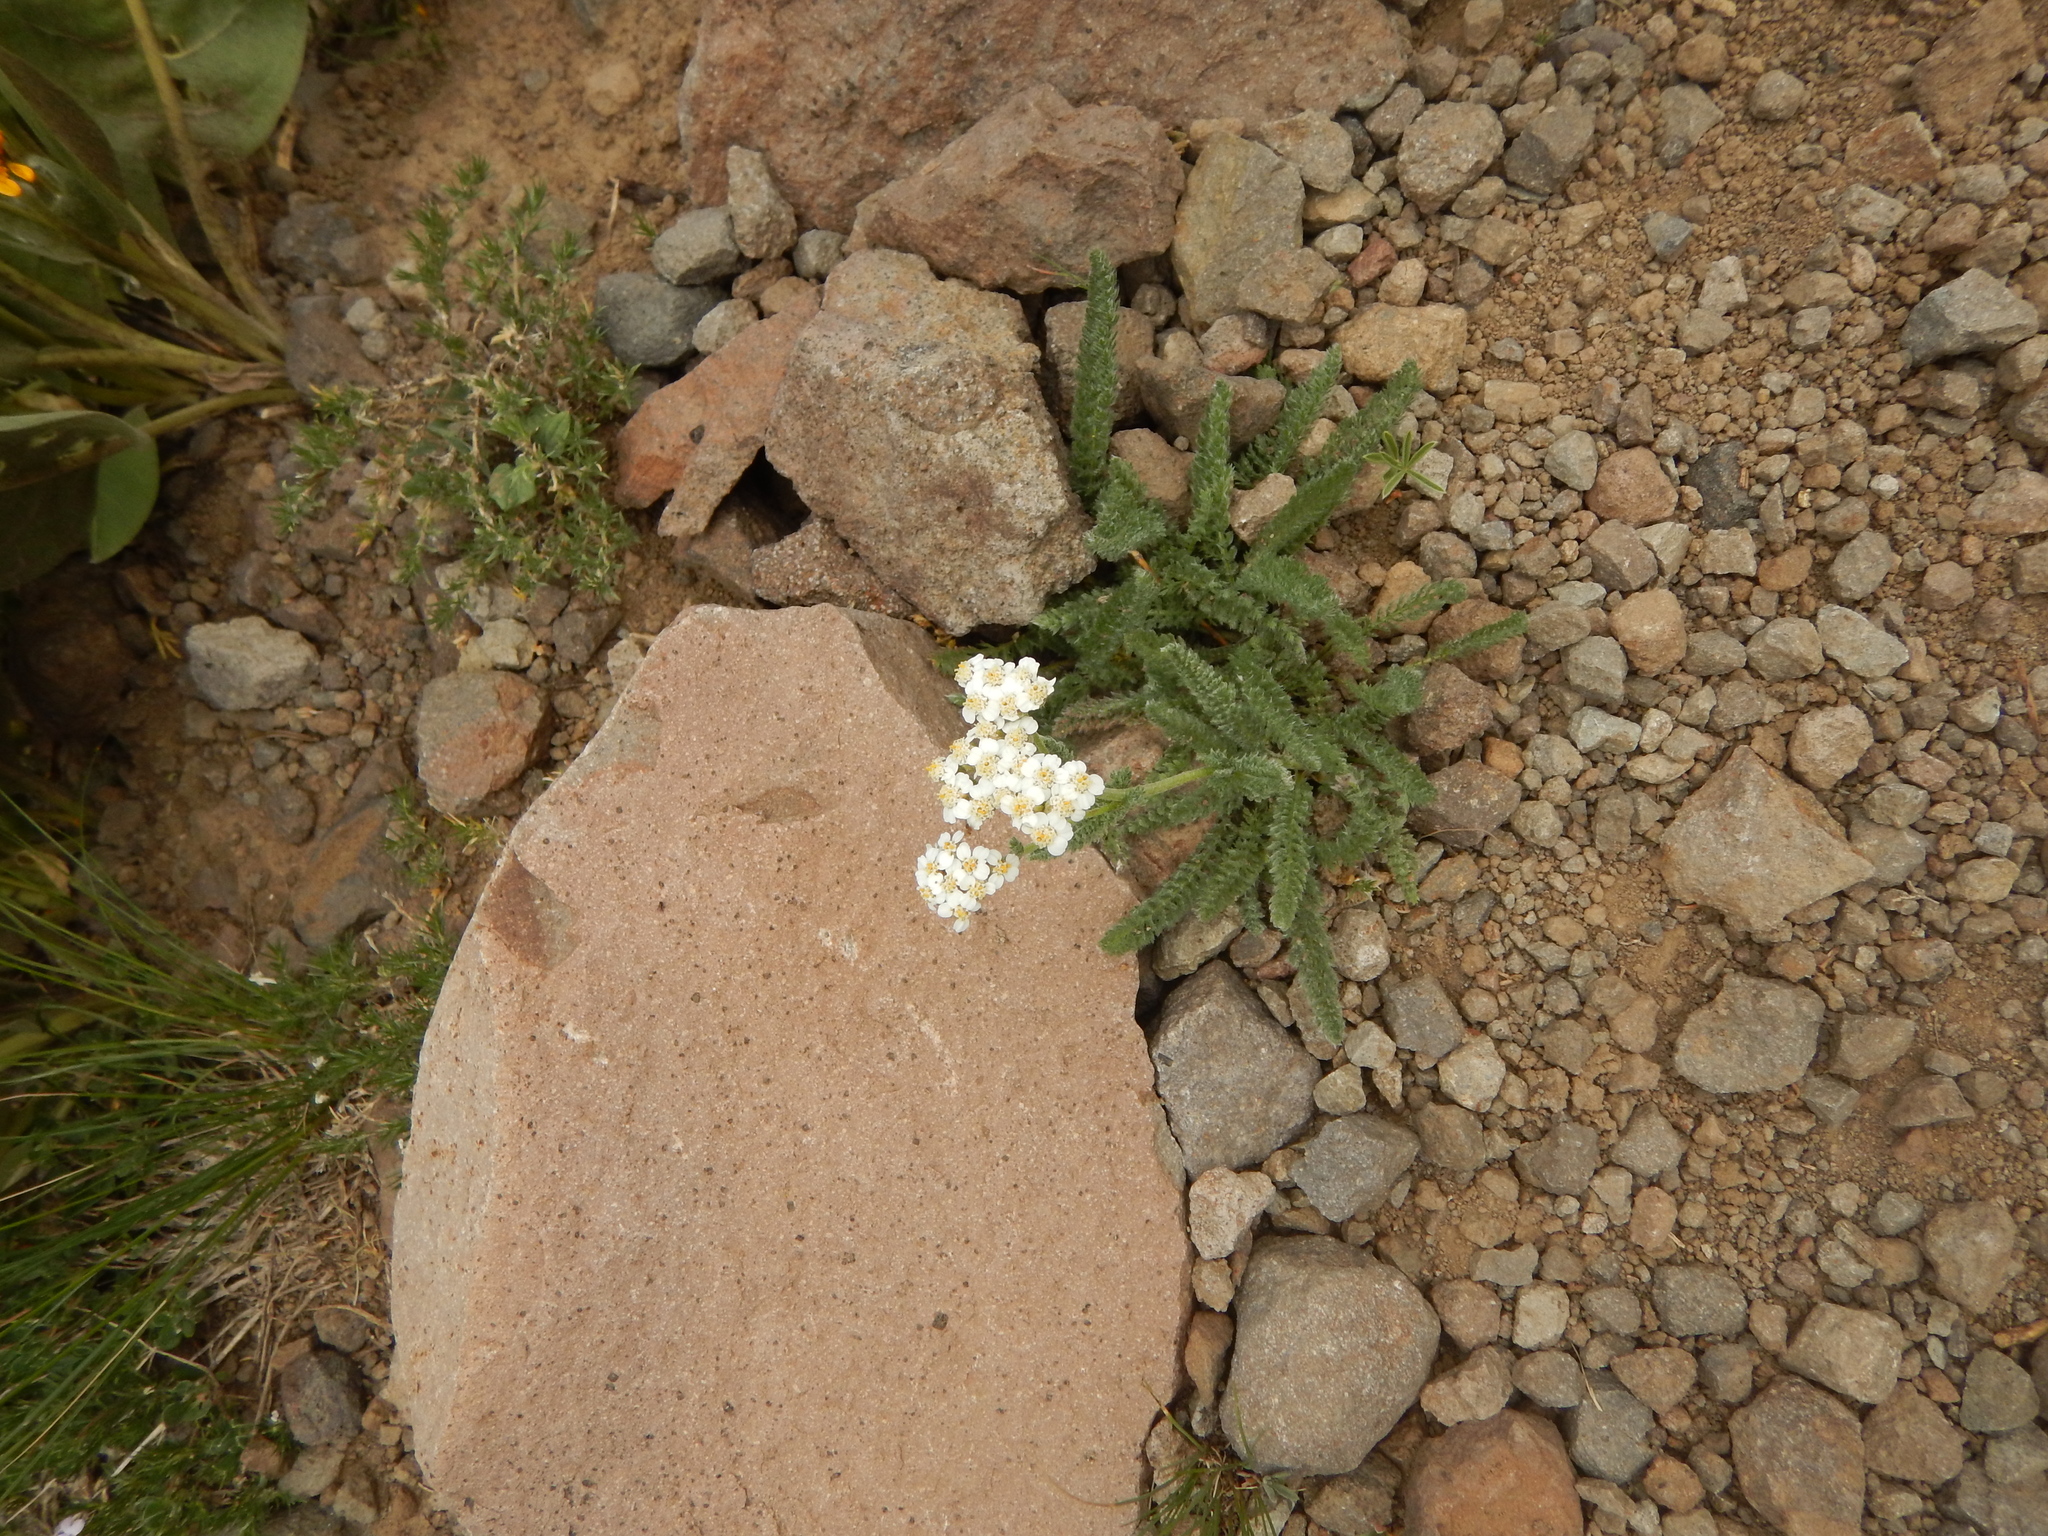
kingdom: Plantae
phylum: Tracheophyta
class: Magnoliopsida
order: Asterales
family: Asteraceae
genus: Achillea
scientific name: Achillea millefolium
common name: Yarrow
